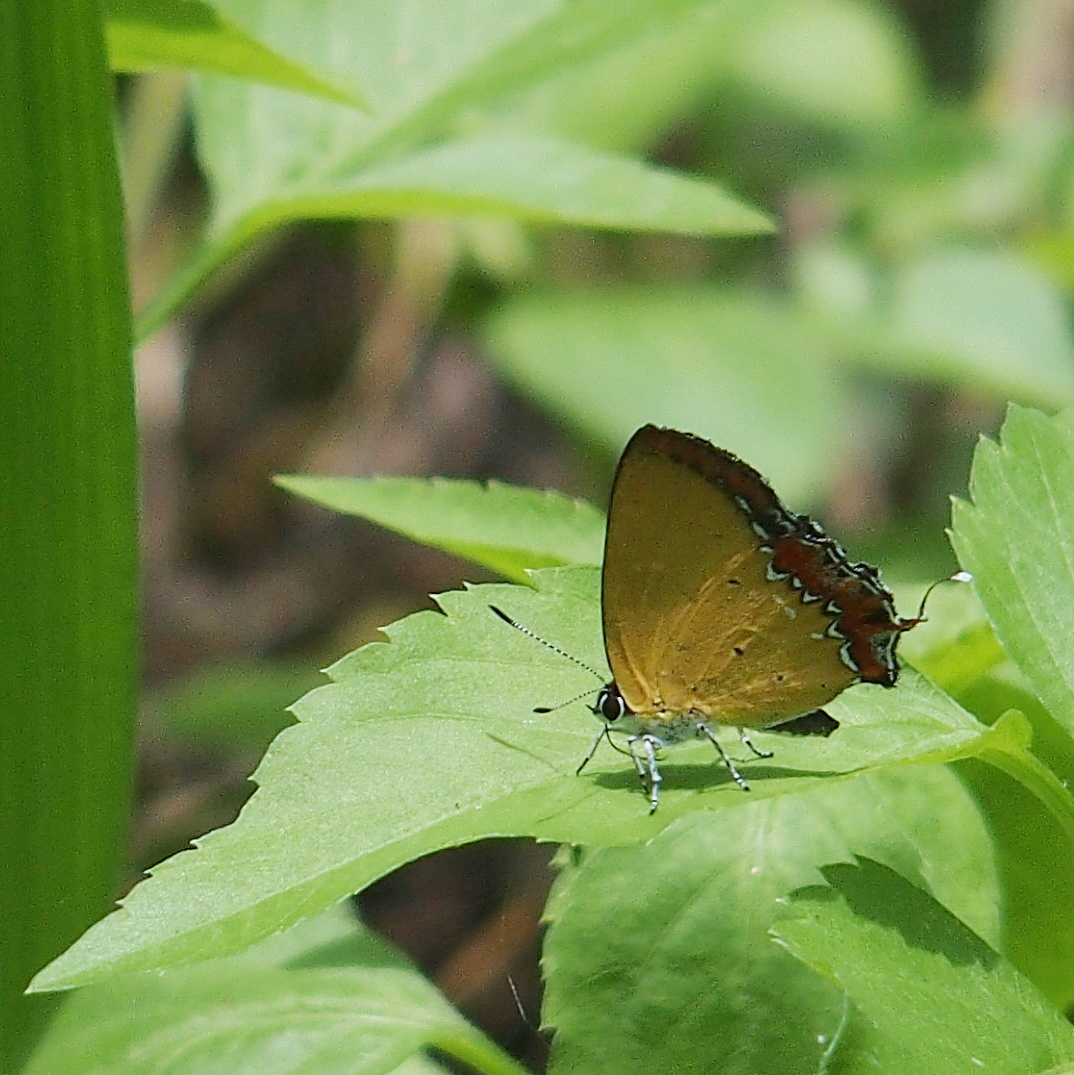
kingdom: Animalia
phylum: Arthropoda
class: Insecta
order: Lepidoptera
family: Lycaenidae
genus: Heliophorus
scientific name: Heliophorus ila
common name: Restricted purple sapphire
